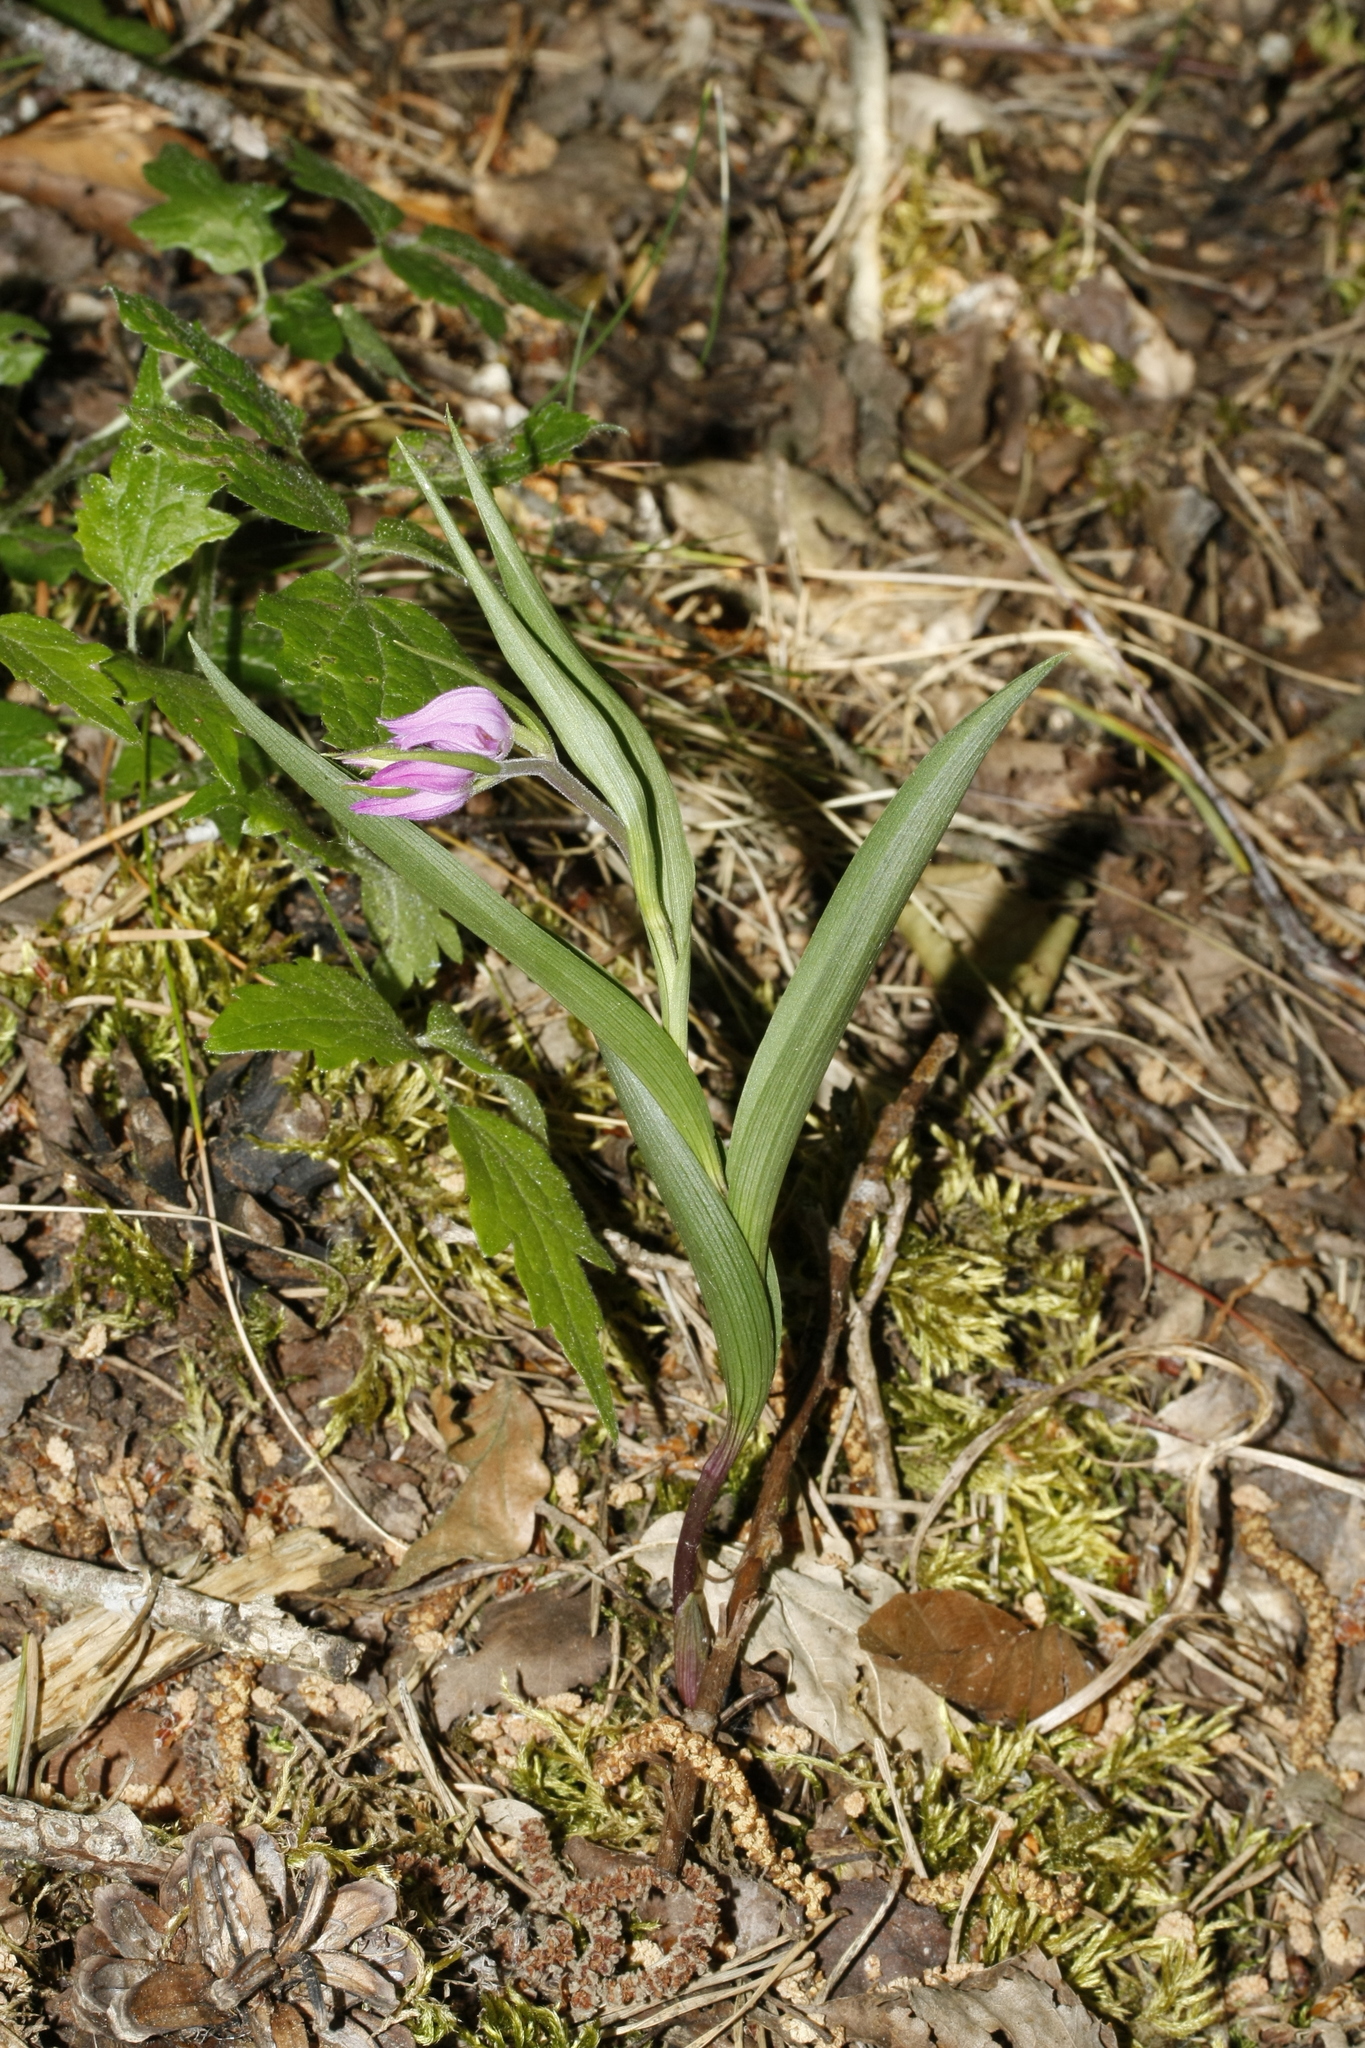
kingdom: Plantae
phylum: Tracheophyta
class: Liliopsida
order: Asparagales
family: Orchidaceae
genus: Cephalanthera
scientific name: Cephalanthera rubra
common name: Red helleborine
